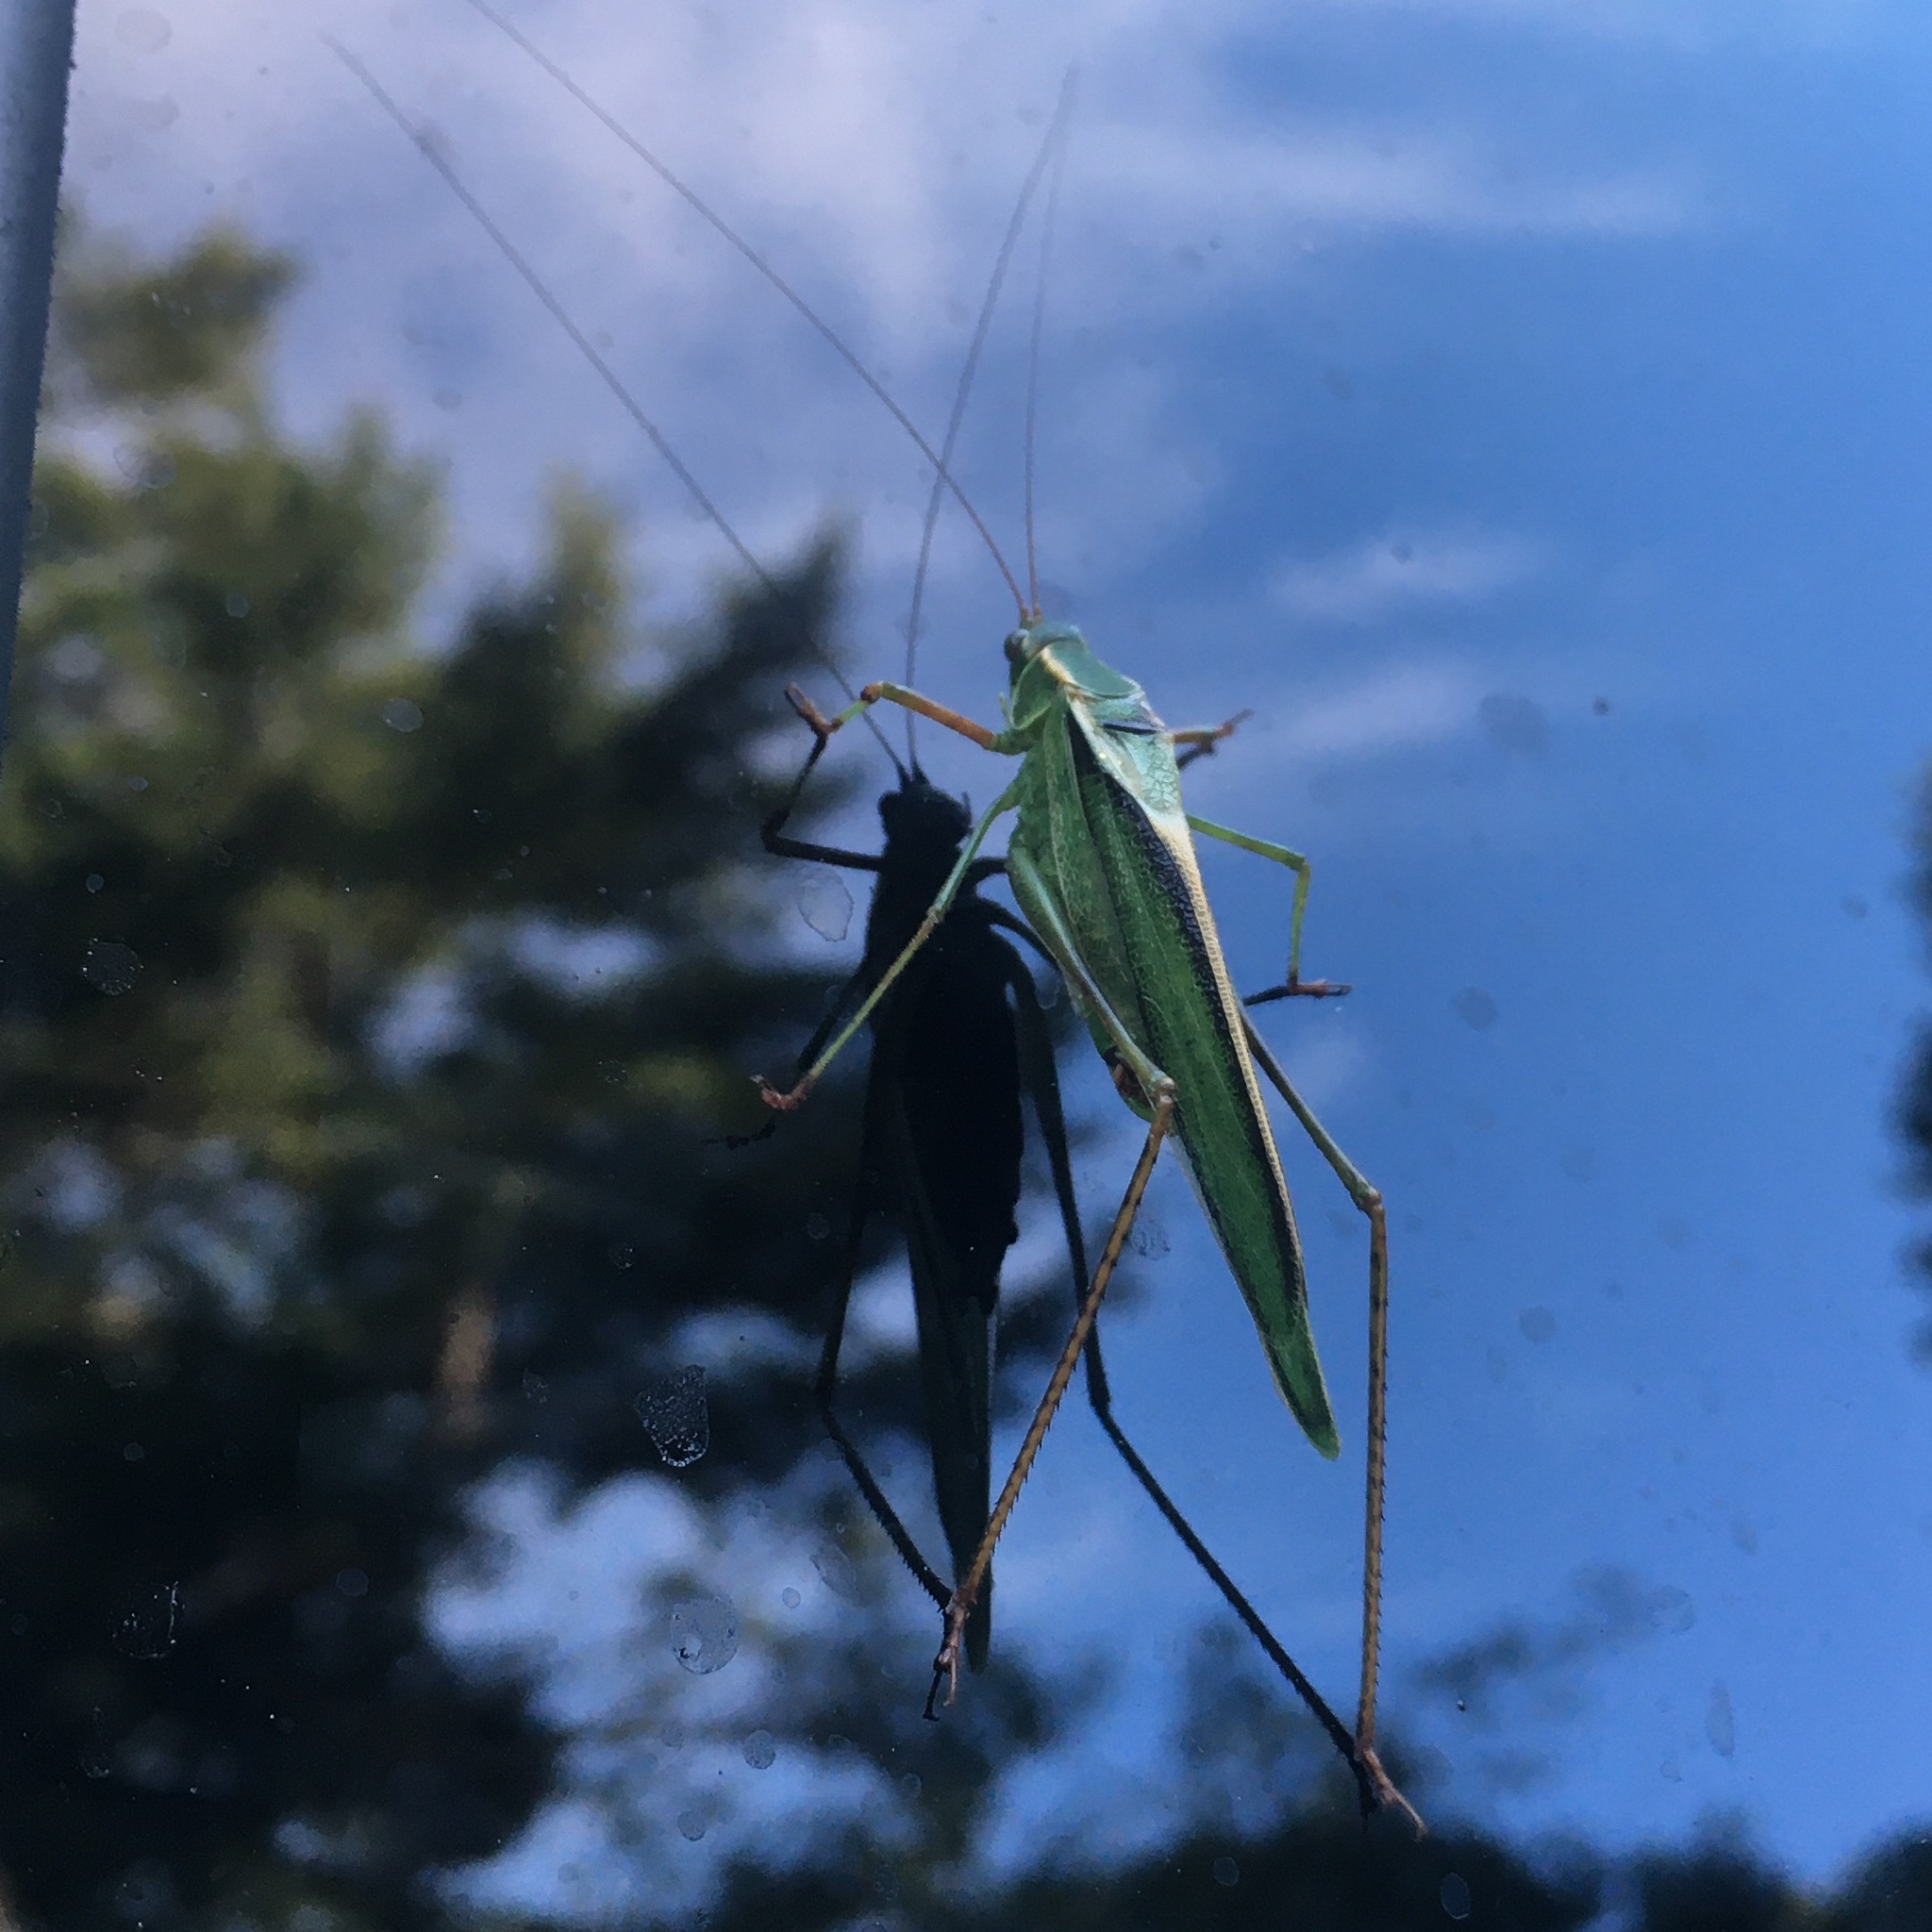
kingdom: Animalia
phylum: Arthropoda
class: Insecta
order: Orthoptera
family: Tettigoniidae
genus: Scudderia
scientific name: Scudderia fasciata
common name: Treetop bush katydid
